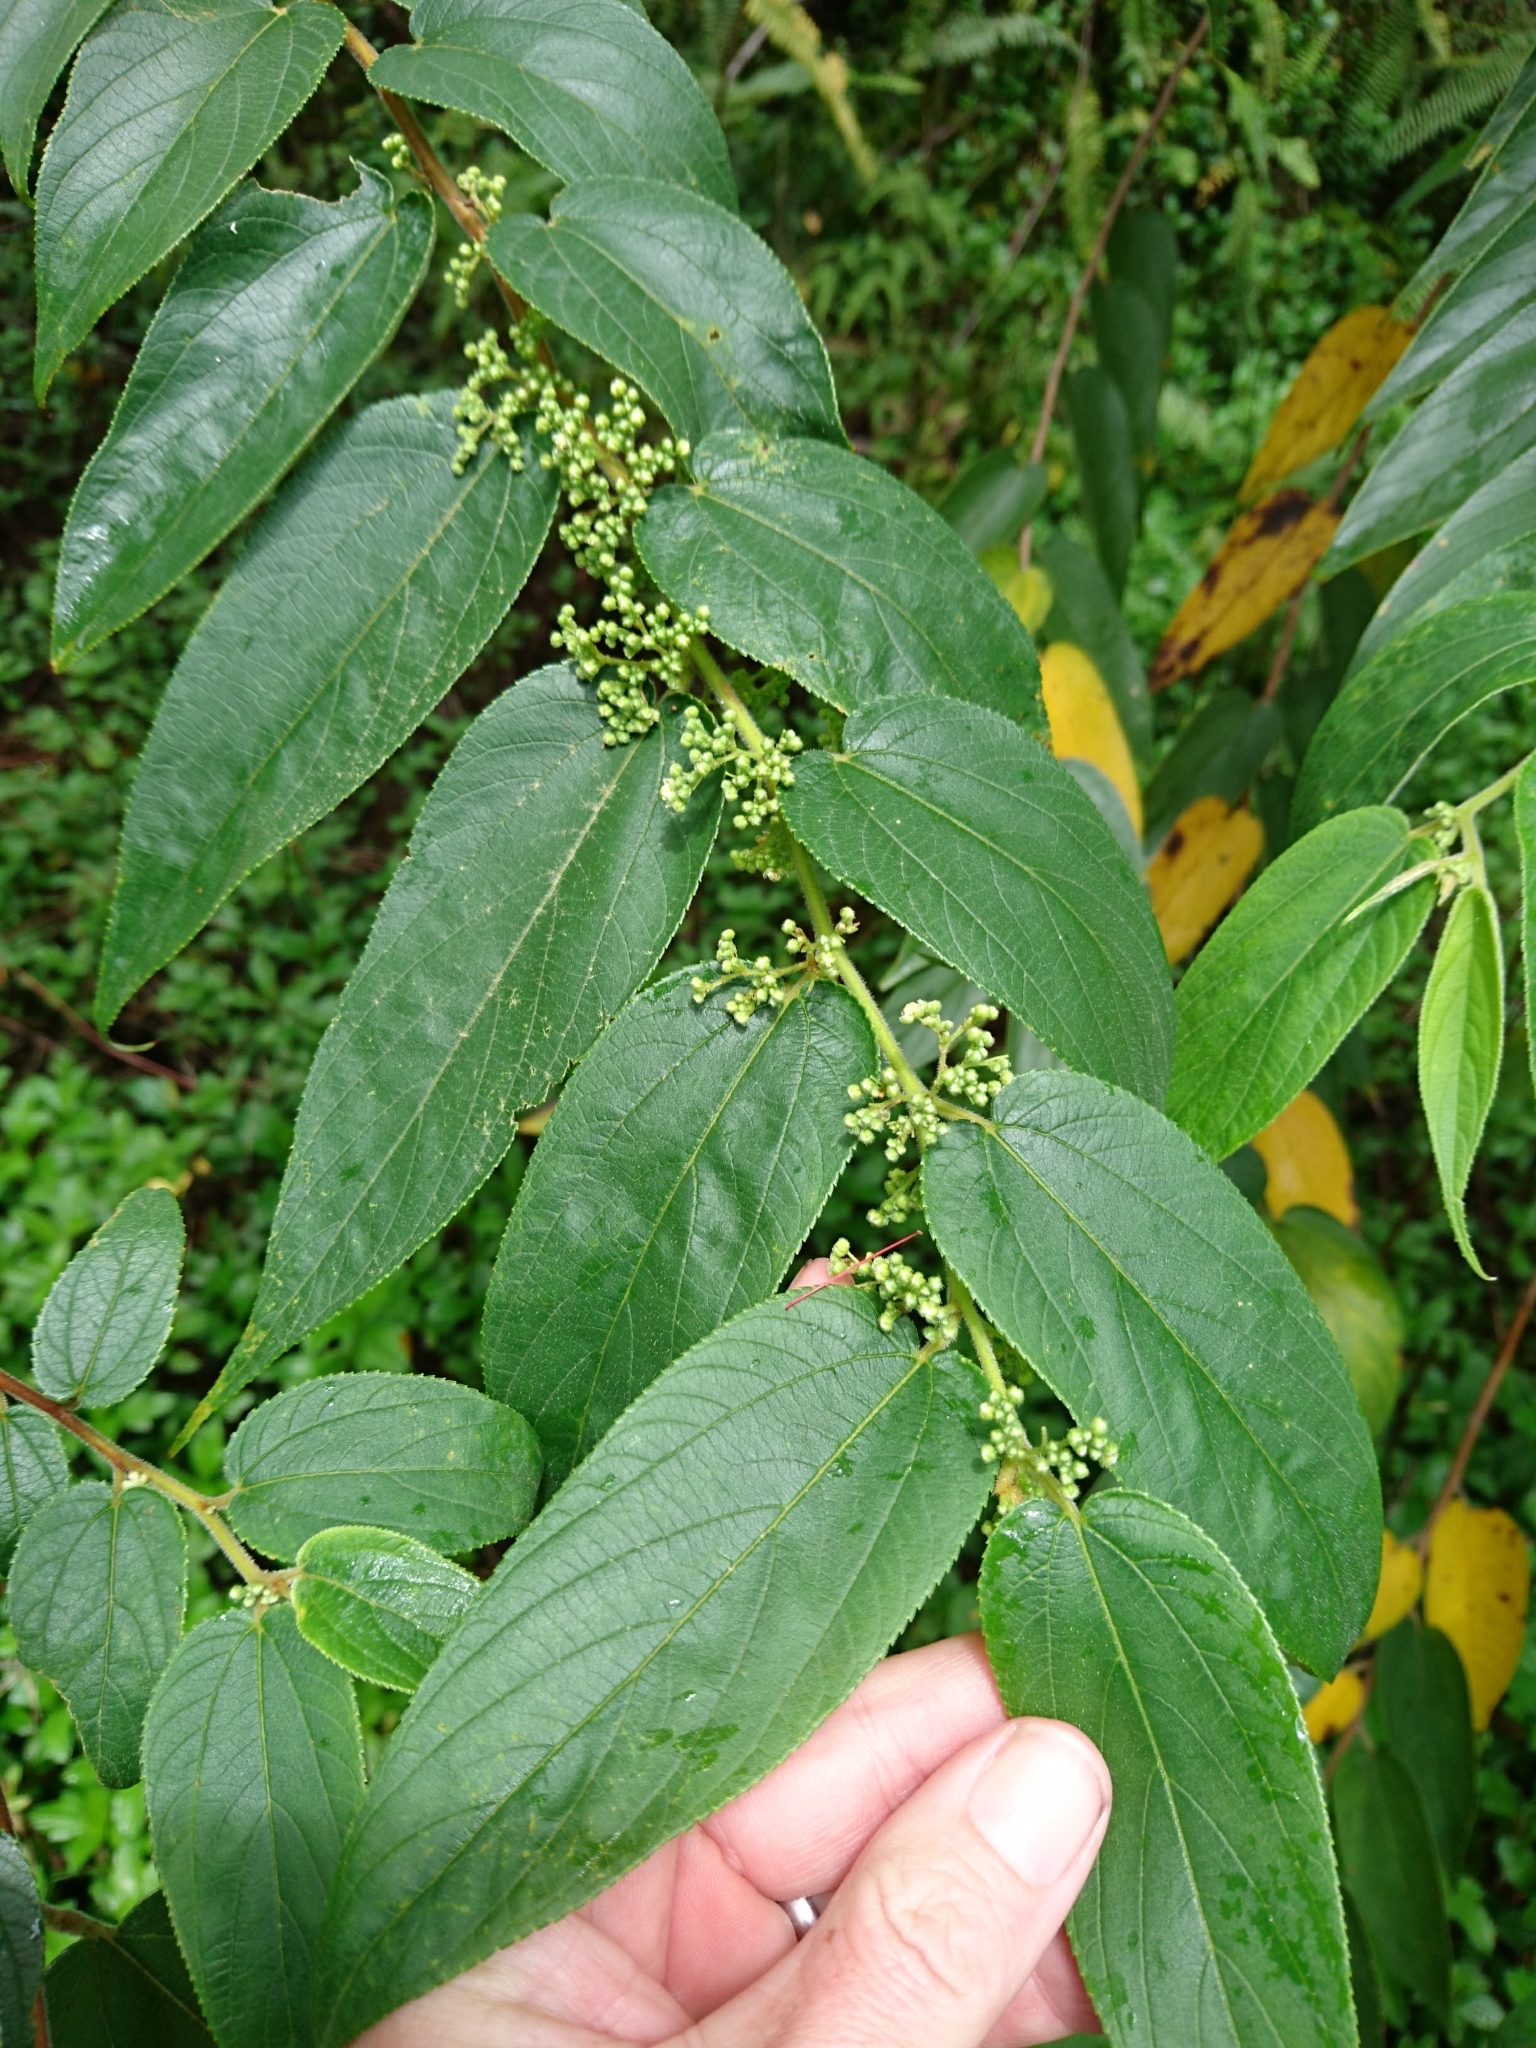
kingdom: Plantae
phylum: Tracheophyta
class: Magnoliopsida
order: Rosales
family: Cannabaceae
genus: Trema
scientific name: Trema orientale
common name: Indian charcoal tree
